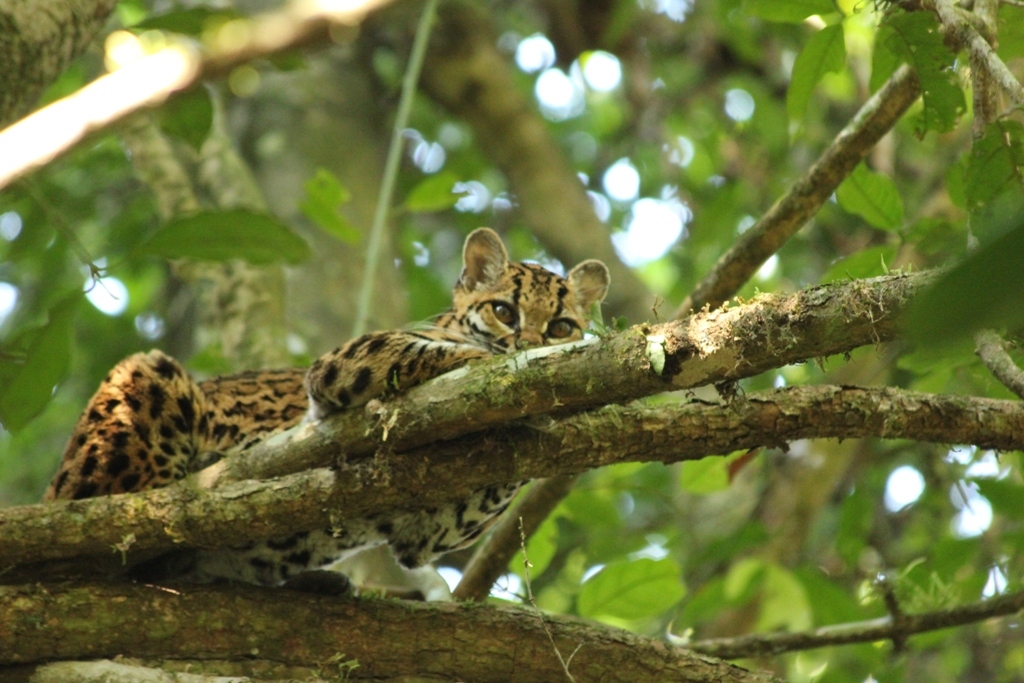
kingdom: Animalia
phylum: Chordata
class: Mammalia
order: Carnivora
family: Felidae
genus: Leopardus
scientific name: Leopardus wiedii
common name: Margay
